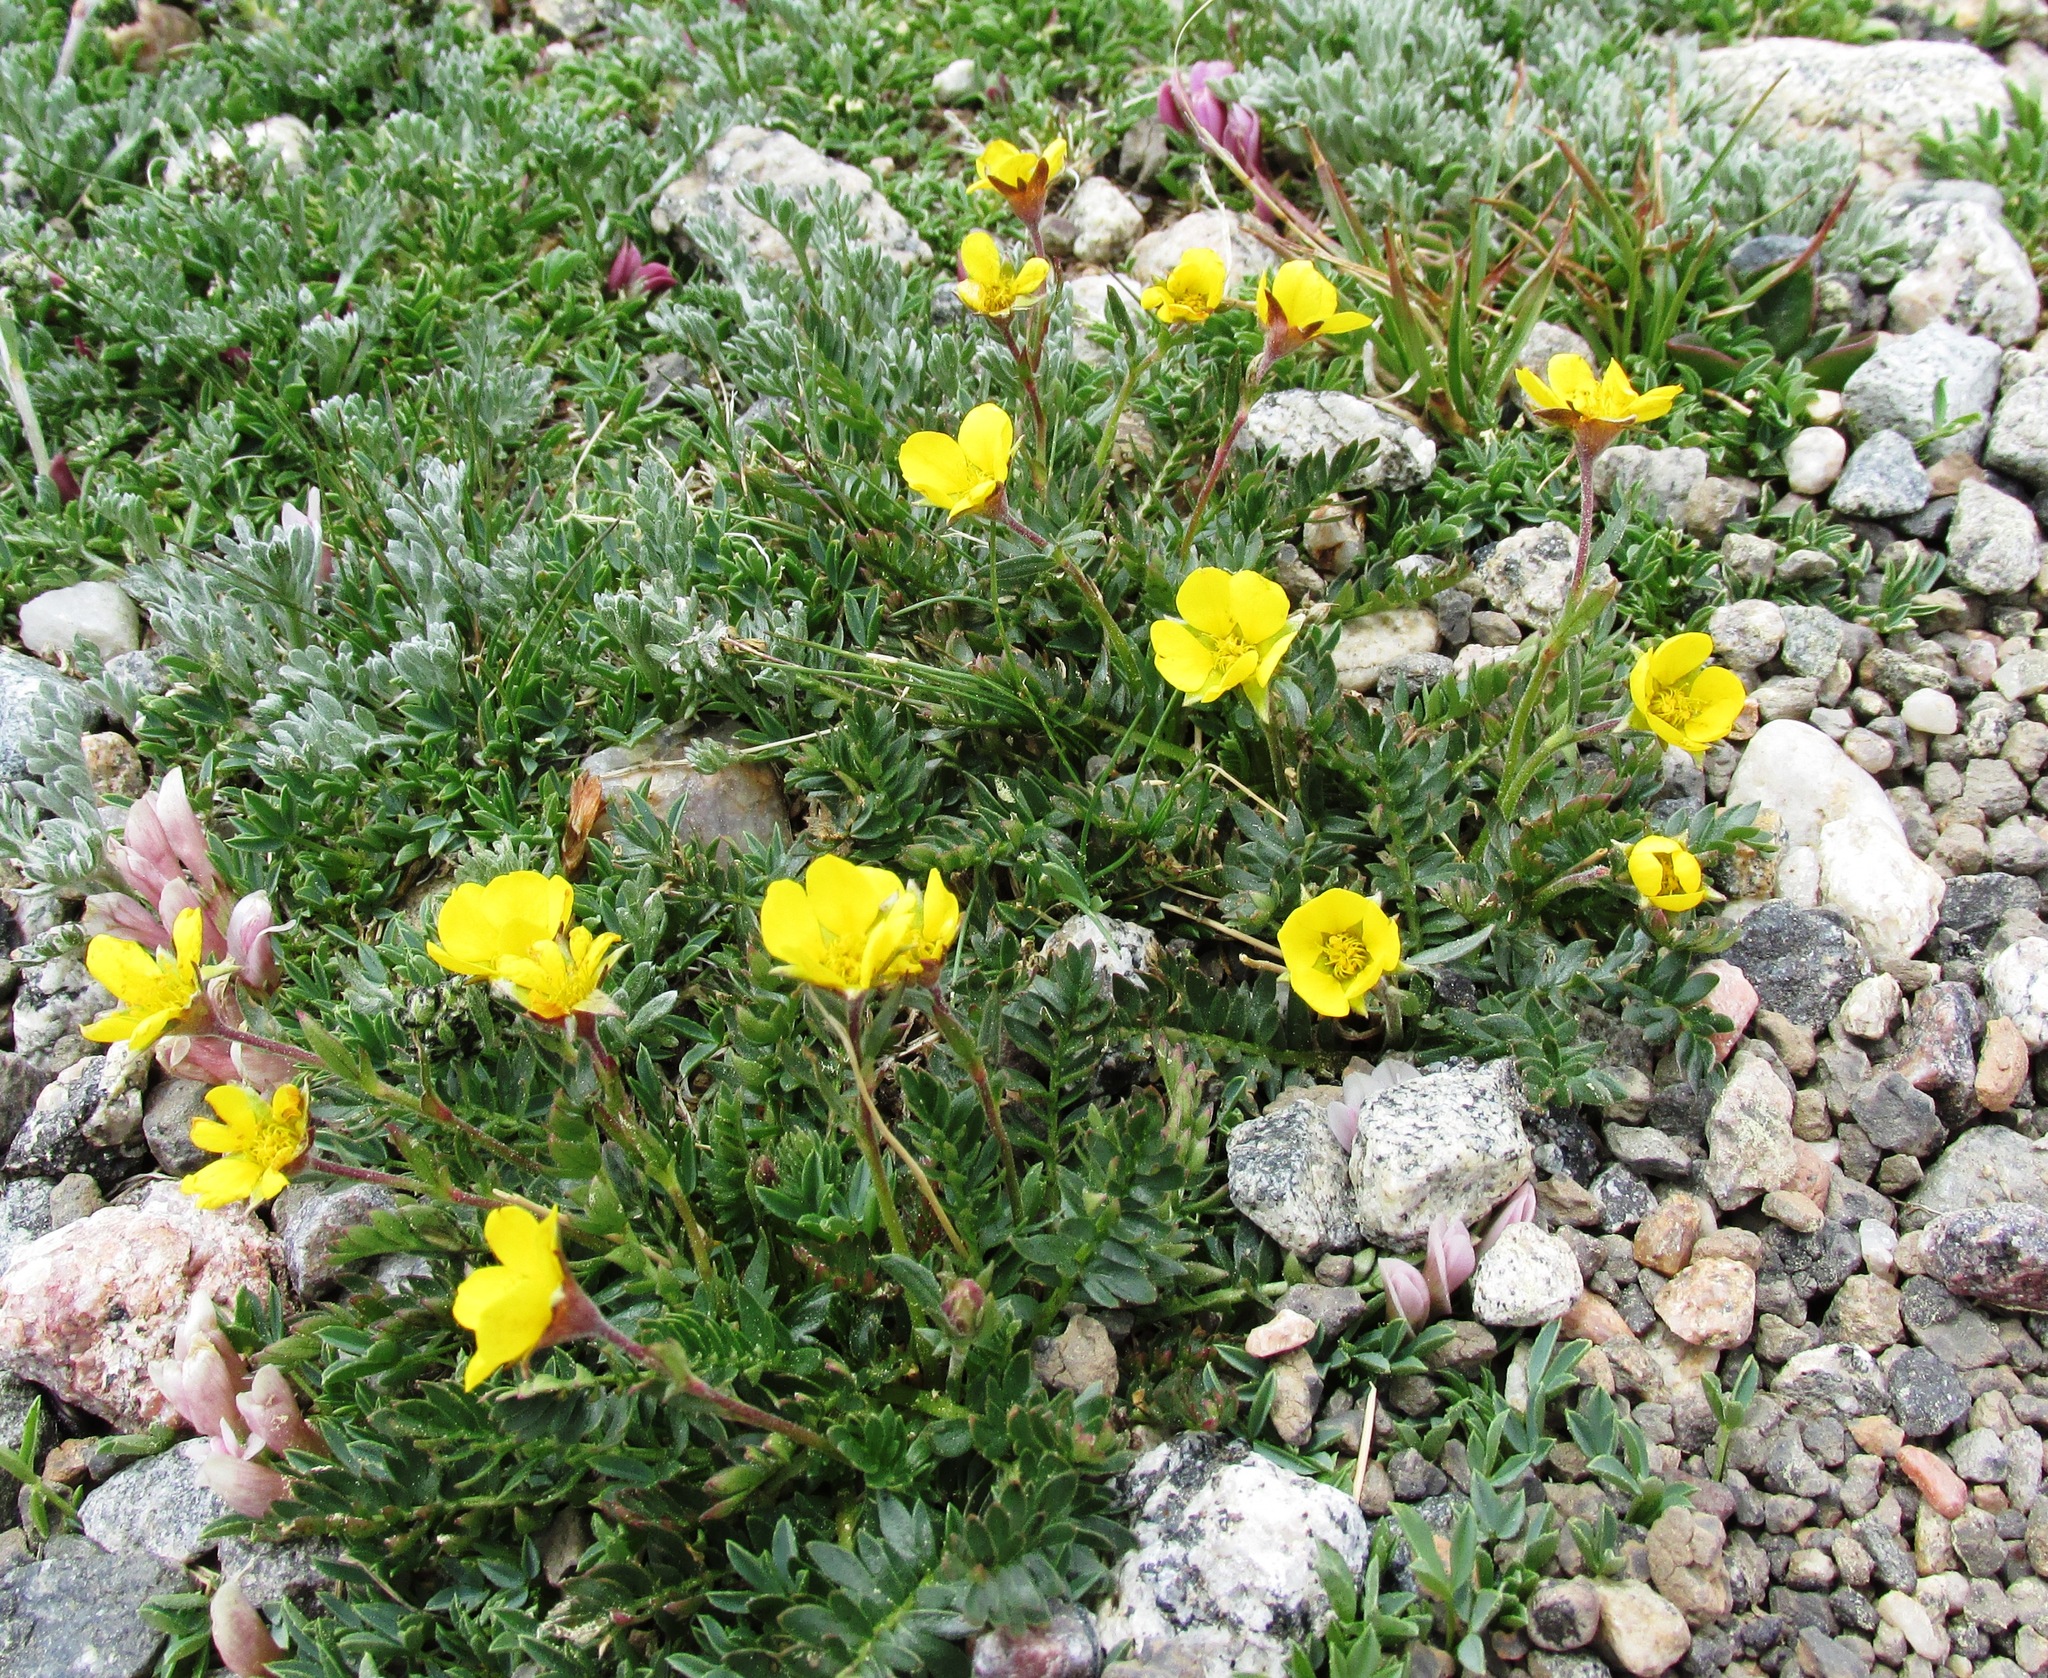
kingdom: Plantae
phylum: Tracheophyta
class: Magnoliopsida
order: Rosales
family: Rosaceae
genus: Geum
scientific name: Geum rossii
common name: Alpine avens
